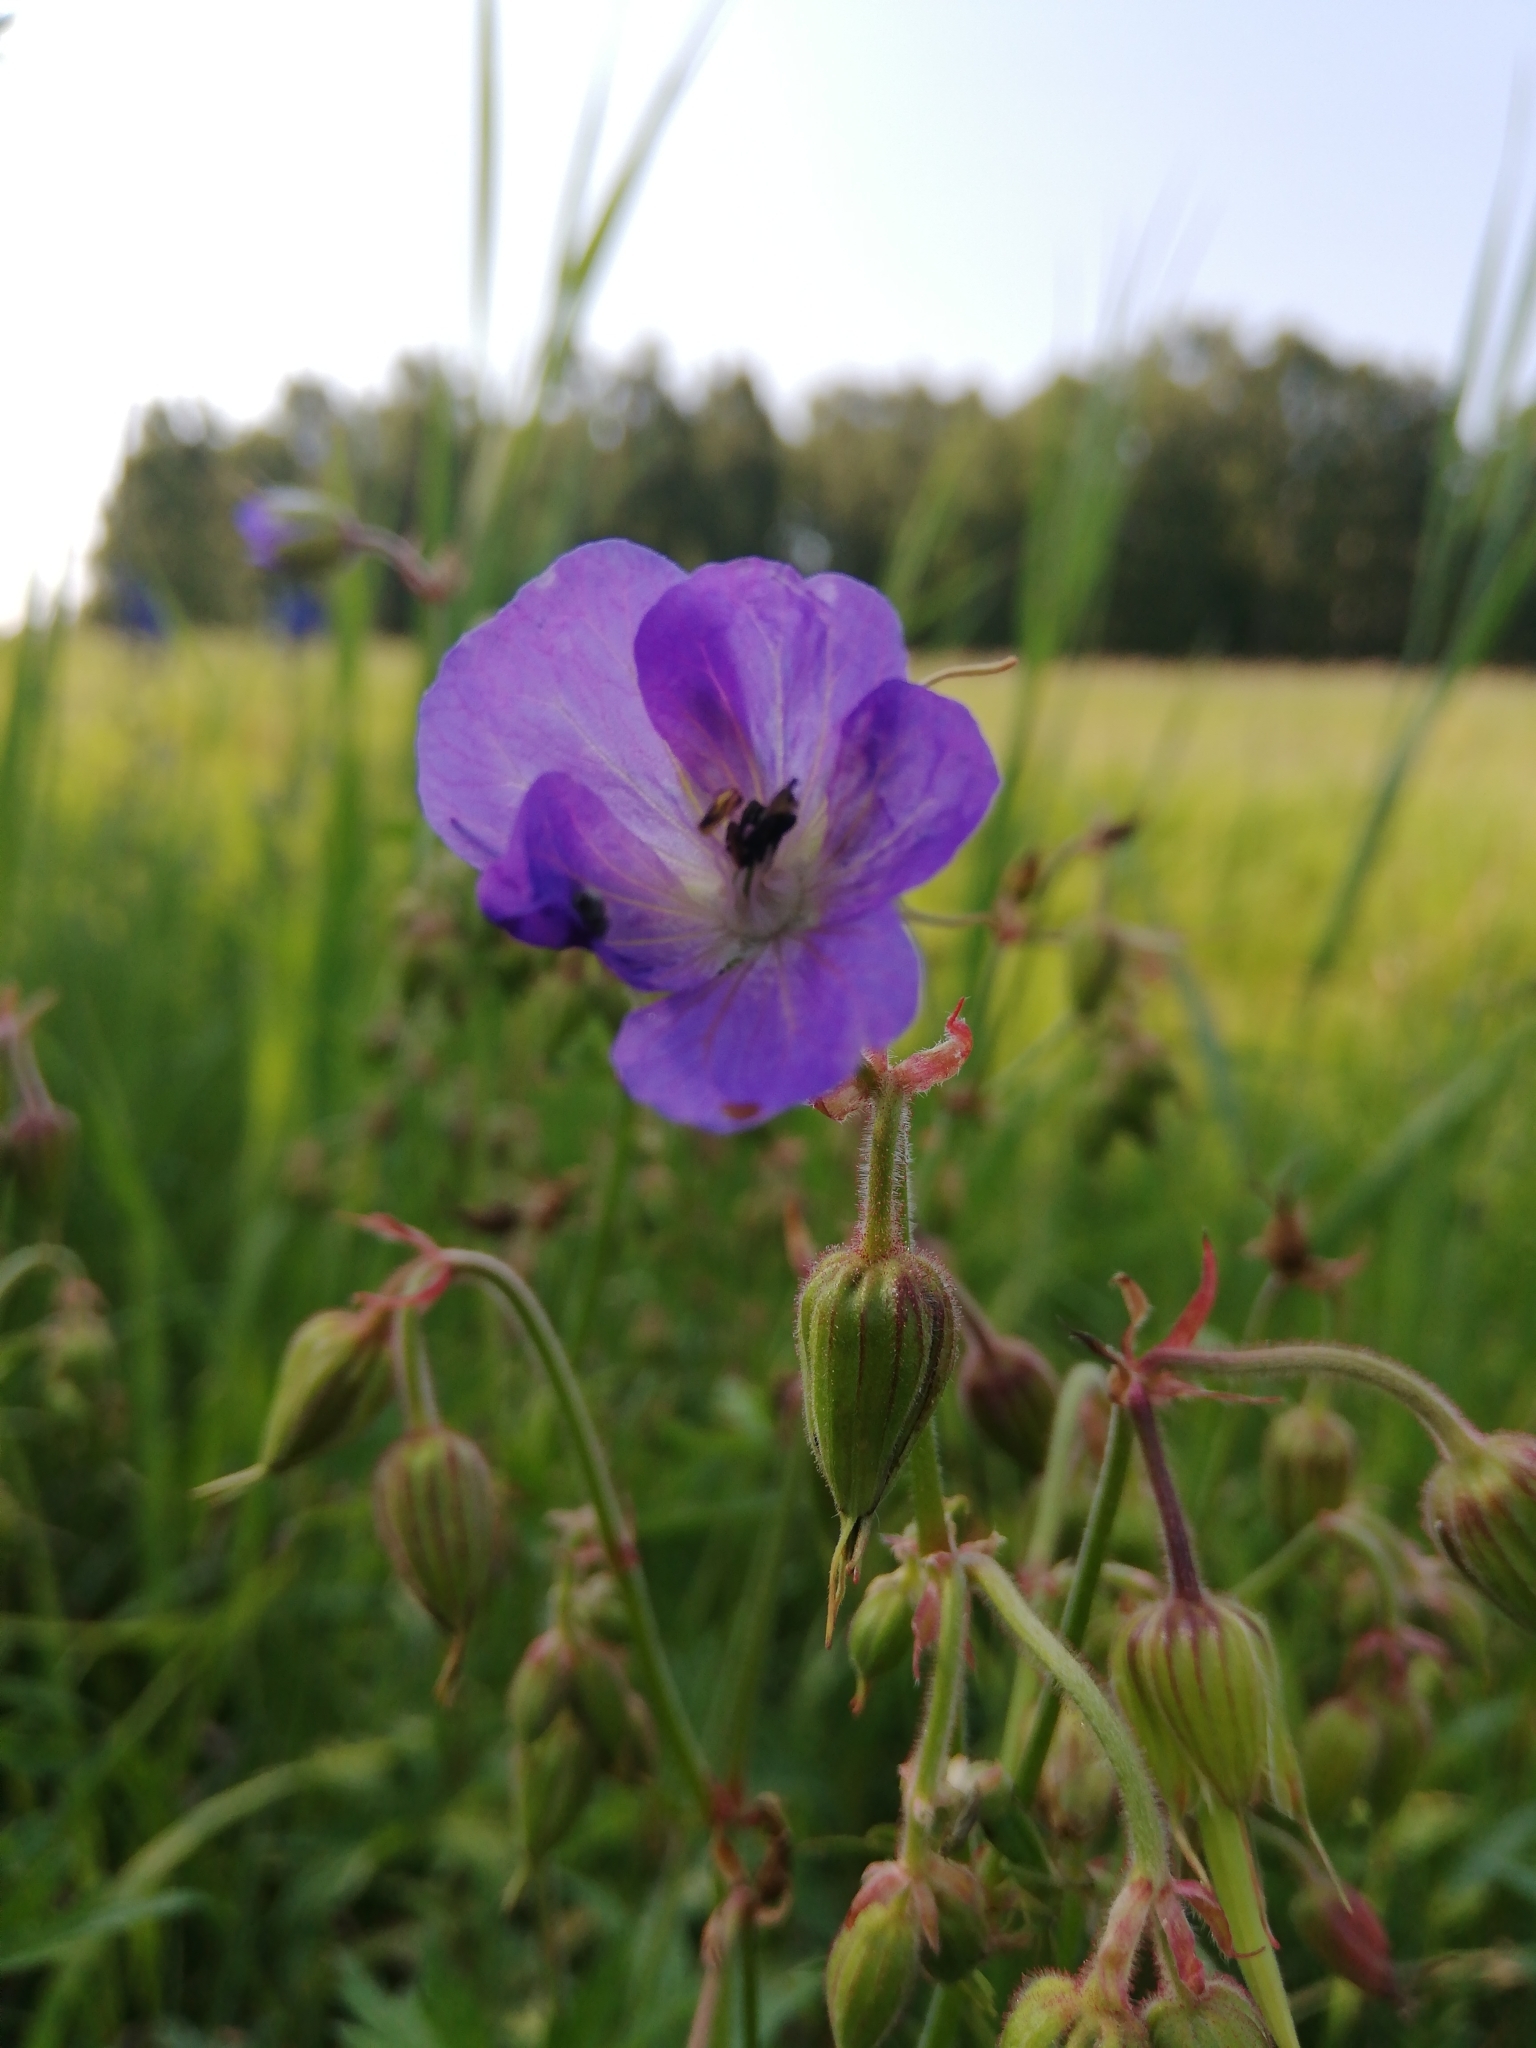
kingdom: Plantae
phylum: Tracheophyta
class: Magnoliopsida
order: Geraniales
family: Geraniaceae
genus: Geranium
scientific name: Geranium pratense
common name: Meadow crane's-bill
